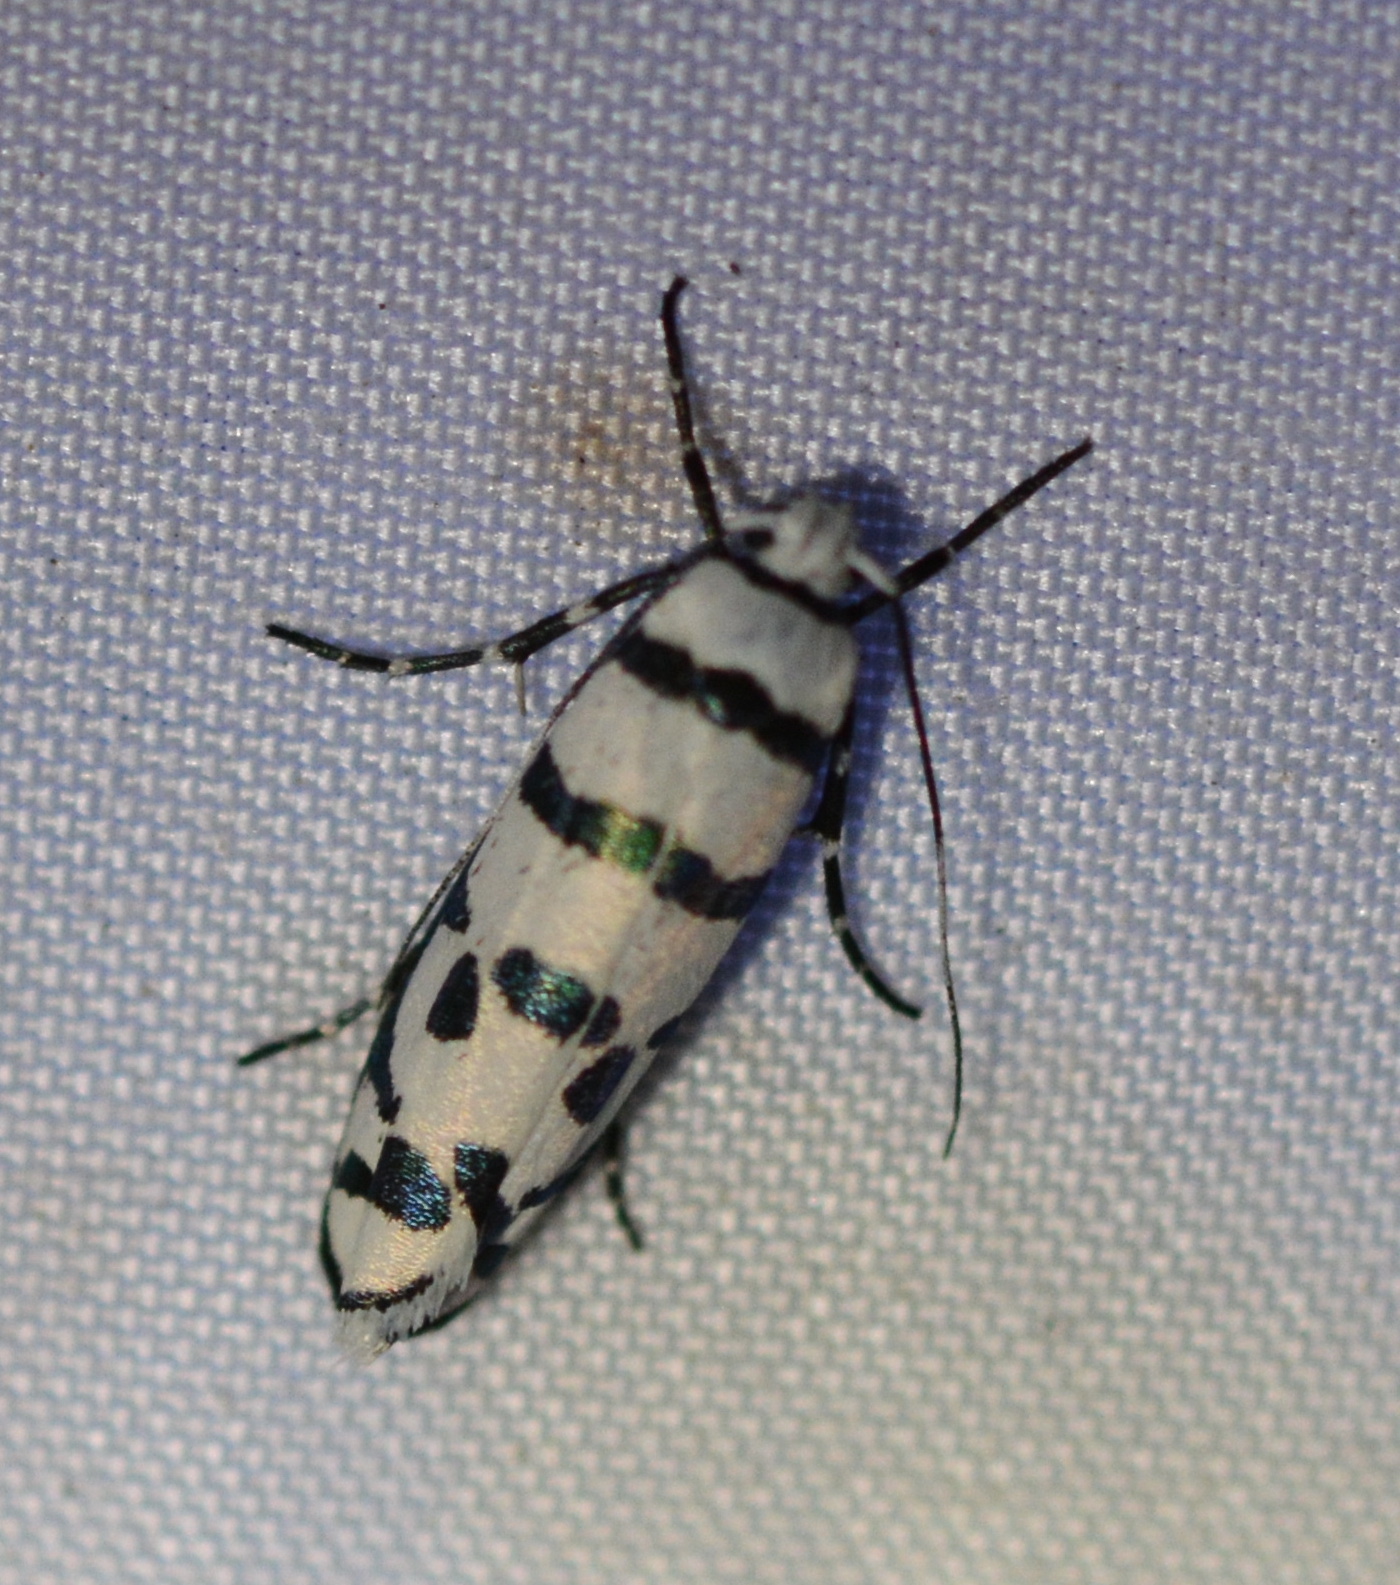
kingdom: Animalia
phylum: Arthropoda
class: Insecta
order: Lepidoptera
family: Ethmiidae
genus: Ethmia
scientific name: Ethmia phoenicura
